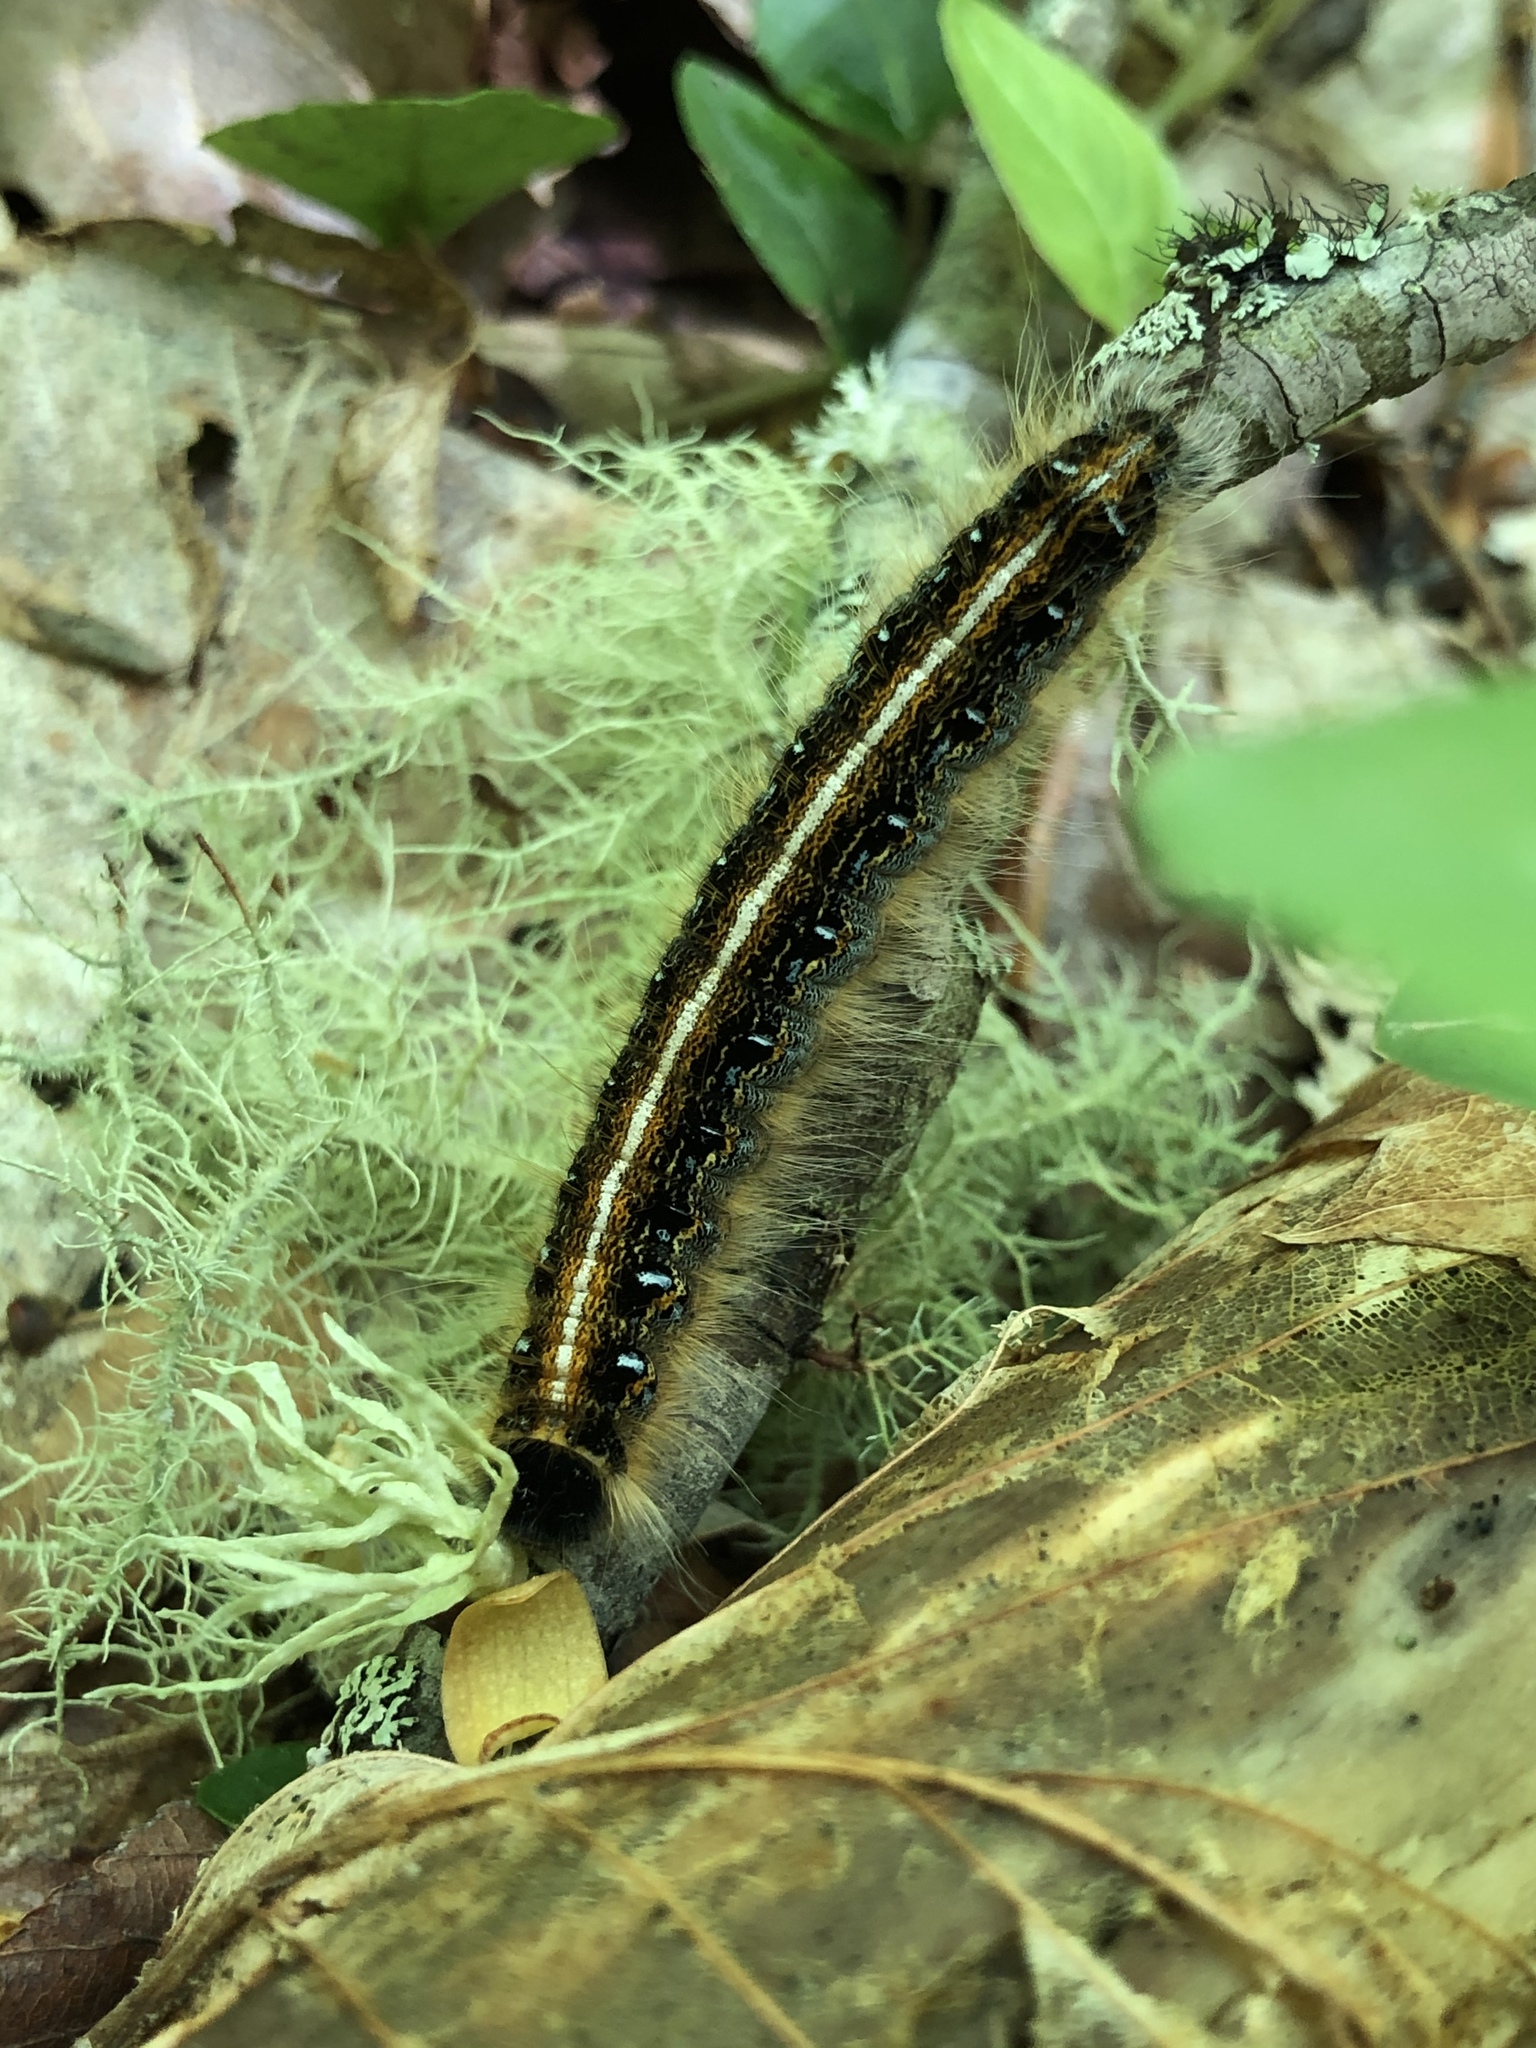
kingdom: Animalia
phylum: Arthropoda
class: Insecta
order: Lepidoptera
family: Lasiocampidae
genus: Malacosoma
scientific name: Malacosoma americana
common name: Eastern tent caterpillar moth
